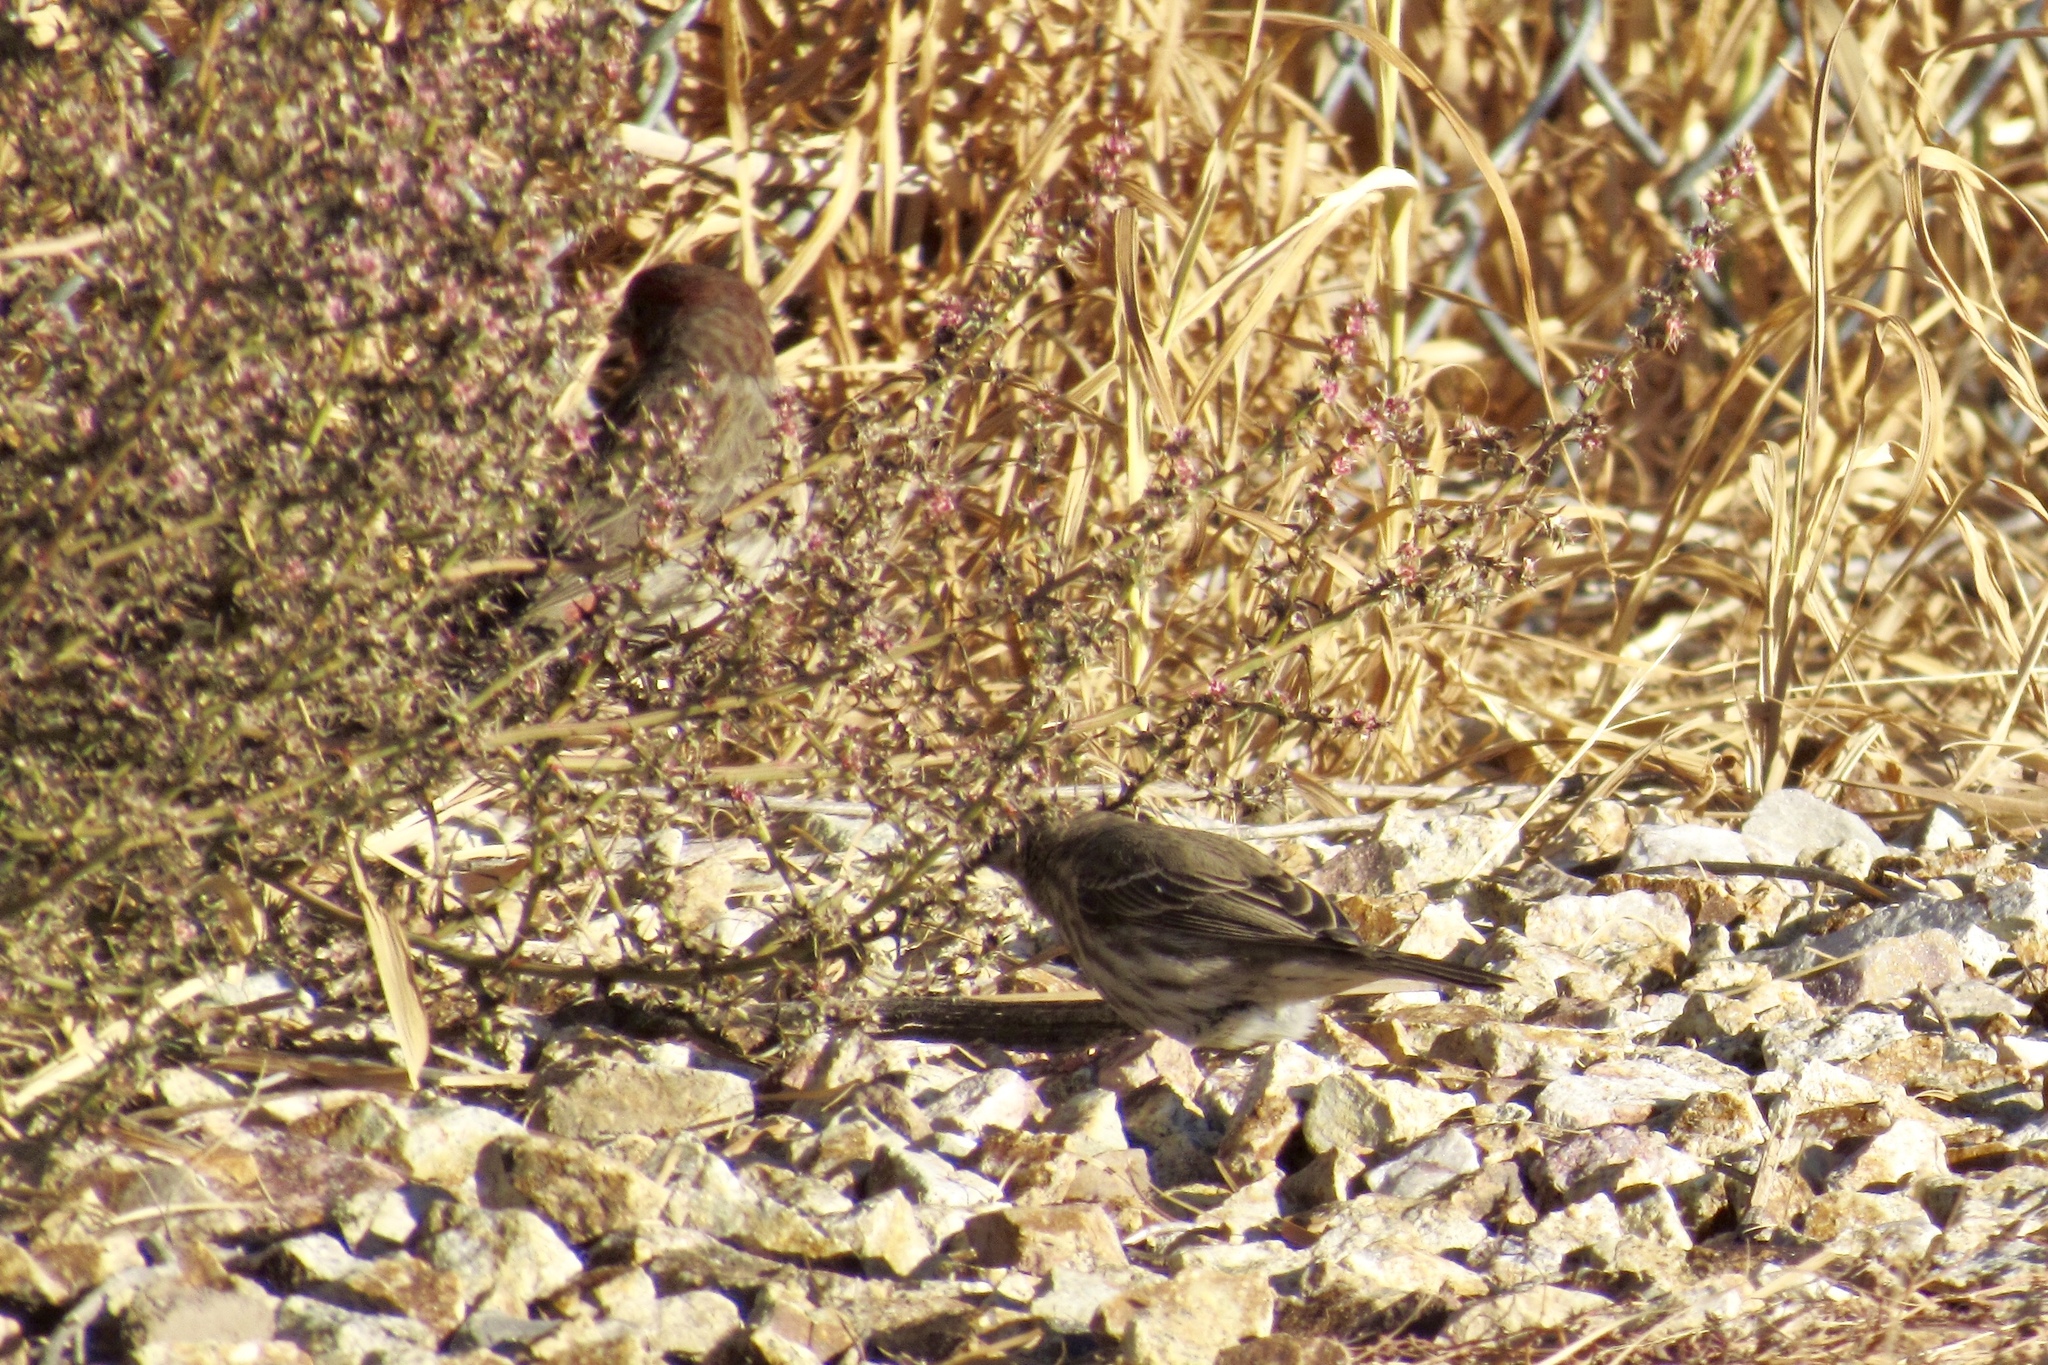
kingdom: Animalia
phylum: Chordata
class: Aves
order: Passeriformes
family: Passerellidae
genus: Calamospiza
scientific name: Calamospiza melanocorys
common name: Lark bunting
